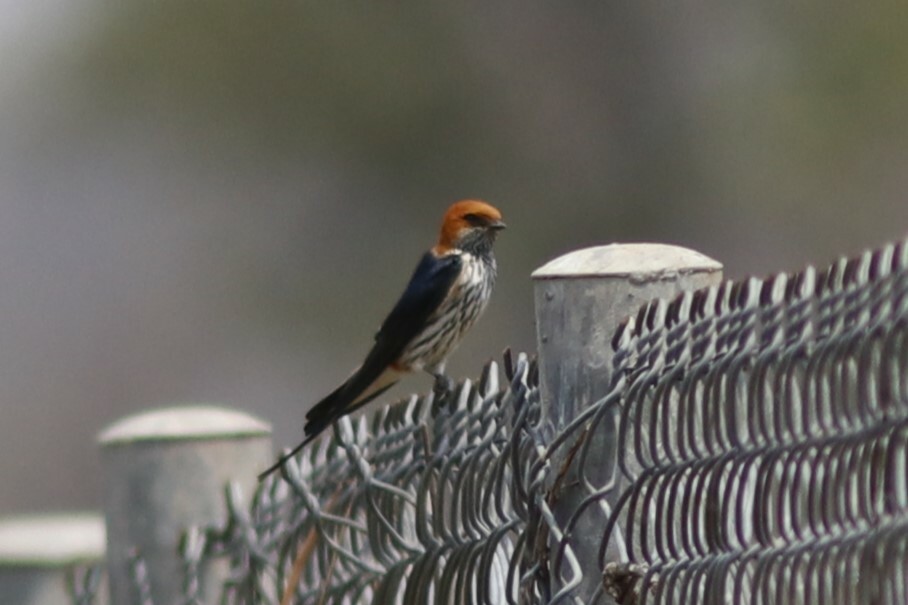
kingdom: Animalia
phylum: Chordata
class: Aves
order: Passeriformes
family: Hirundinidae
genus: Cecropis
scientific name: Cecropis abyssinica
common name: Lesser striped-swallow
